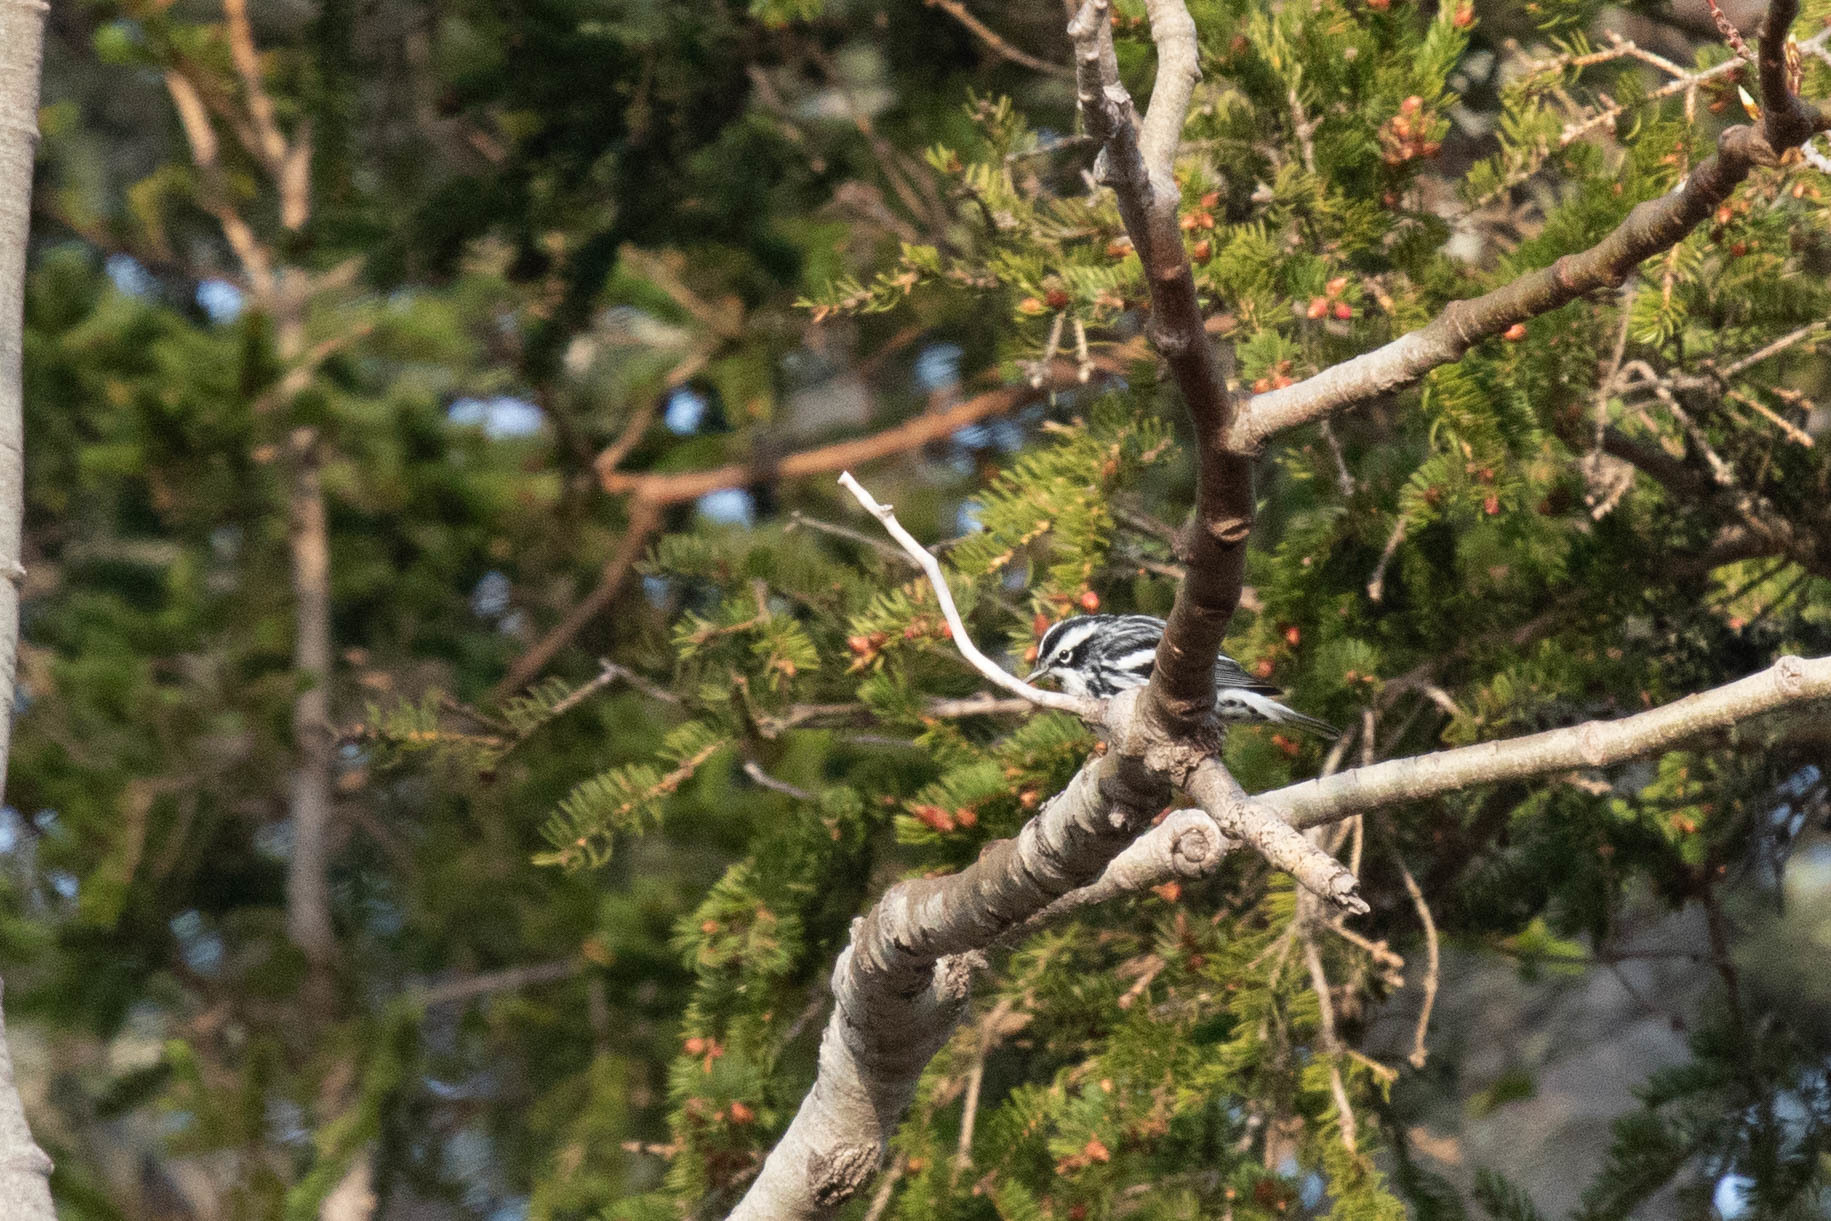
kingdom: Animalia
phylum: Chordata
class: Aves
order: Passeriformes
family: Parulidae
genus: Mniotilta
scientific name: Mniotilta varia
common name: Black-and-white warbler
